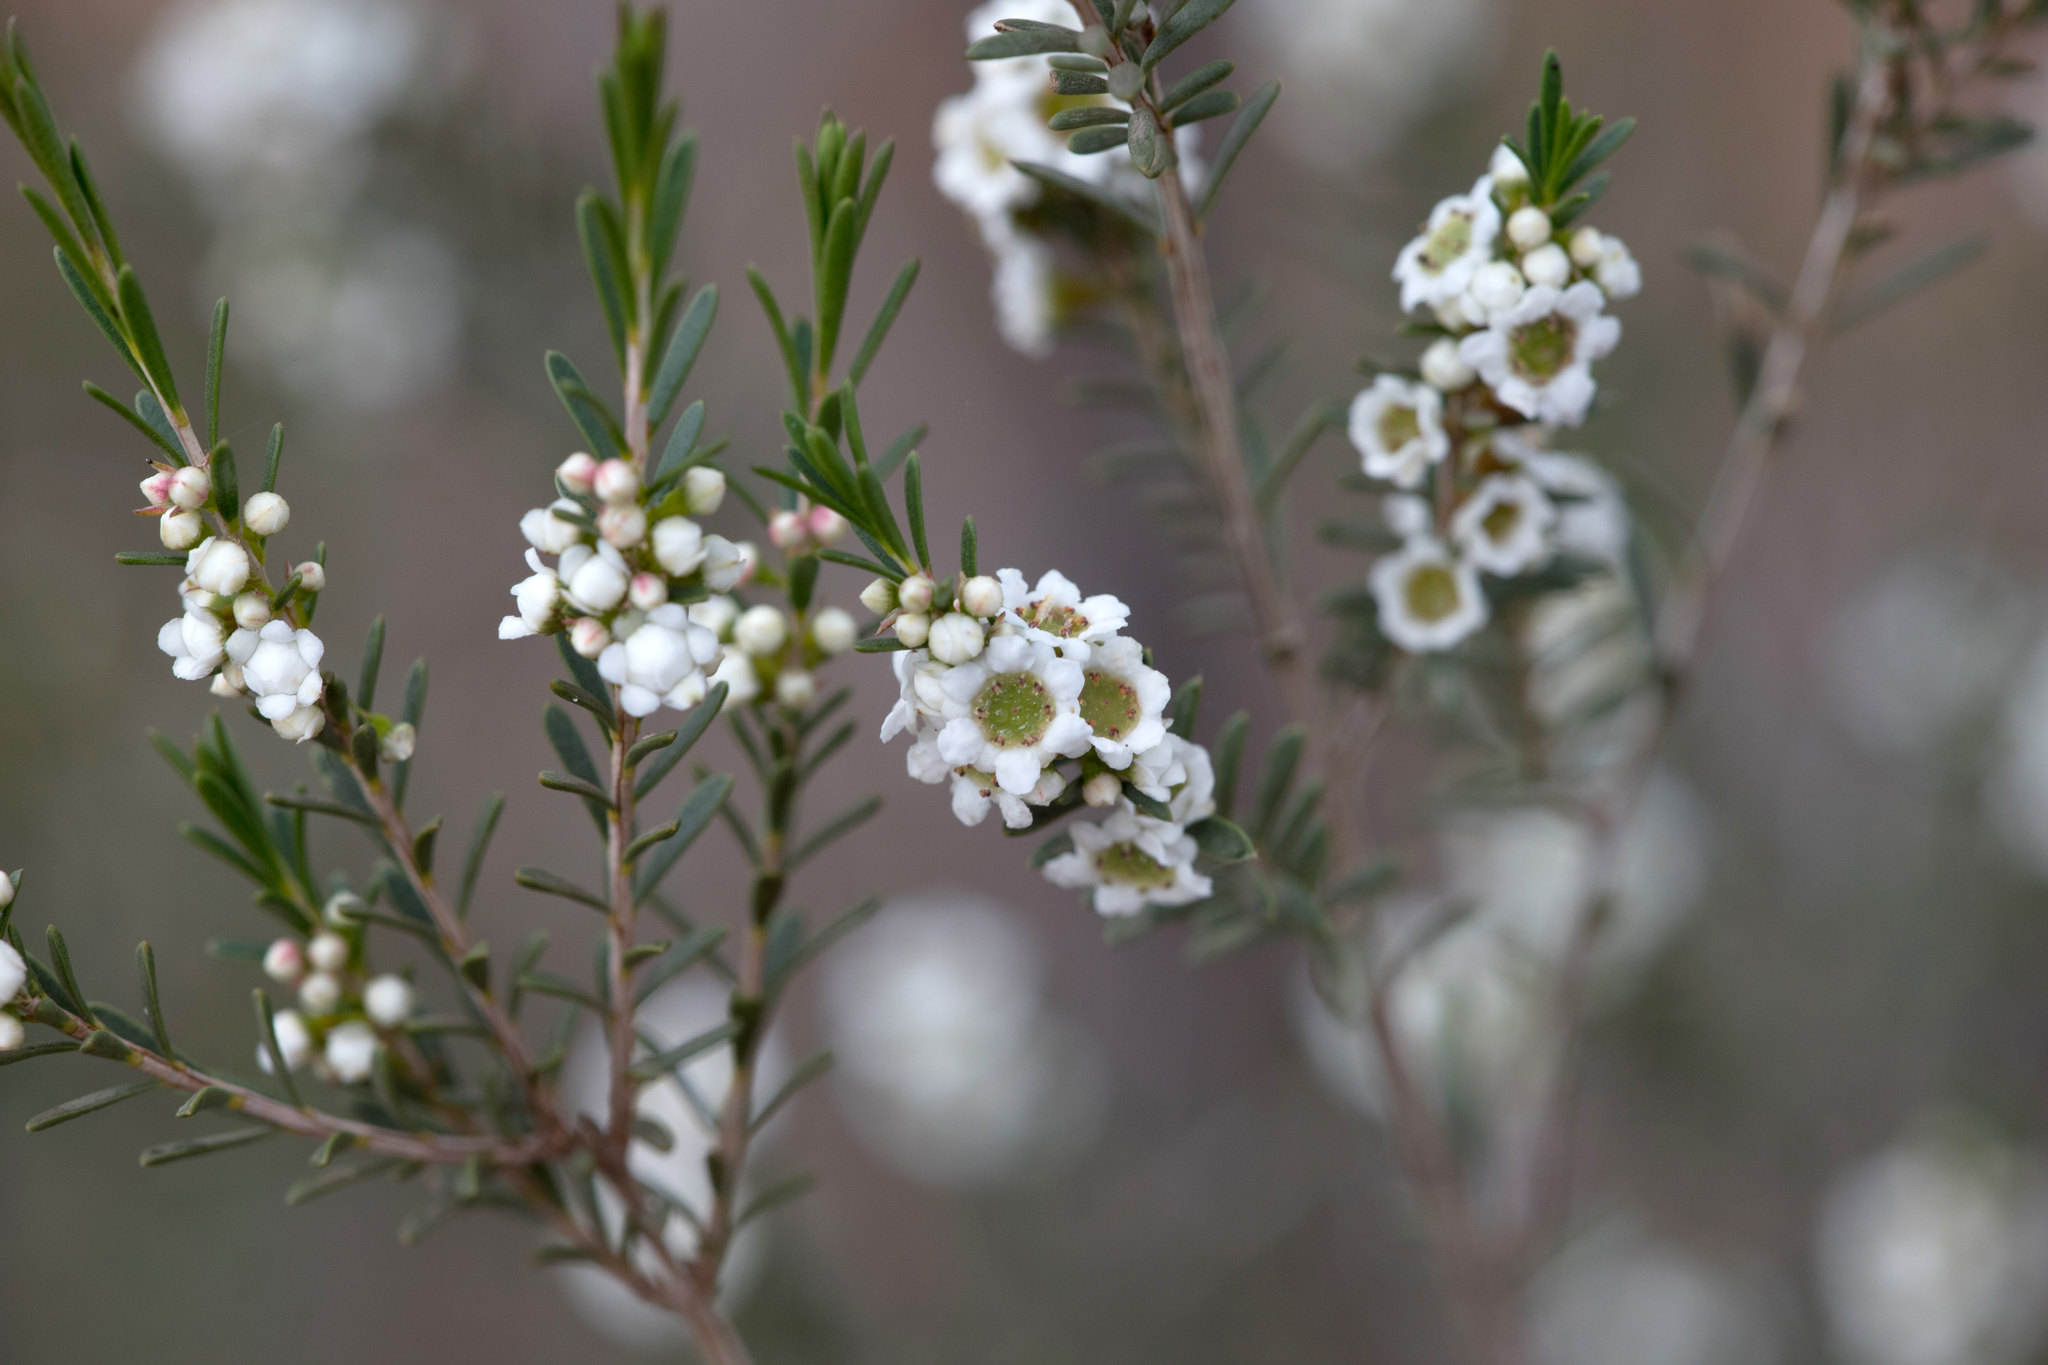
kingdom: Plantae
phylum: Tracheophyta
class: Magnoliopsida
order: Myrtales
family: Myrtaceae
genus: Thryptomene
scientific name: Thryptomene hexandra
